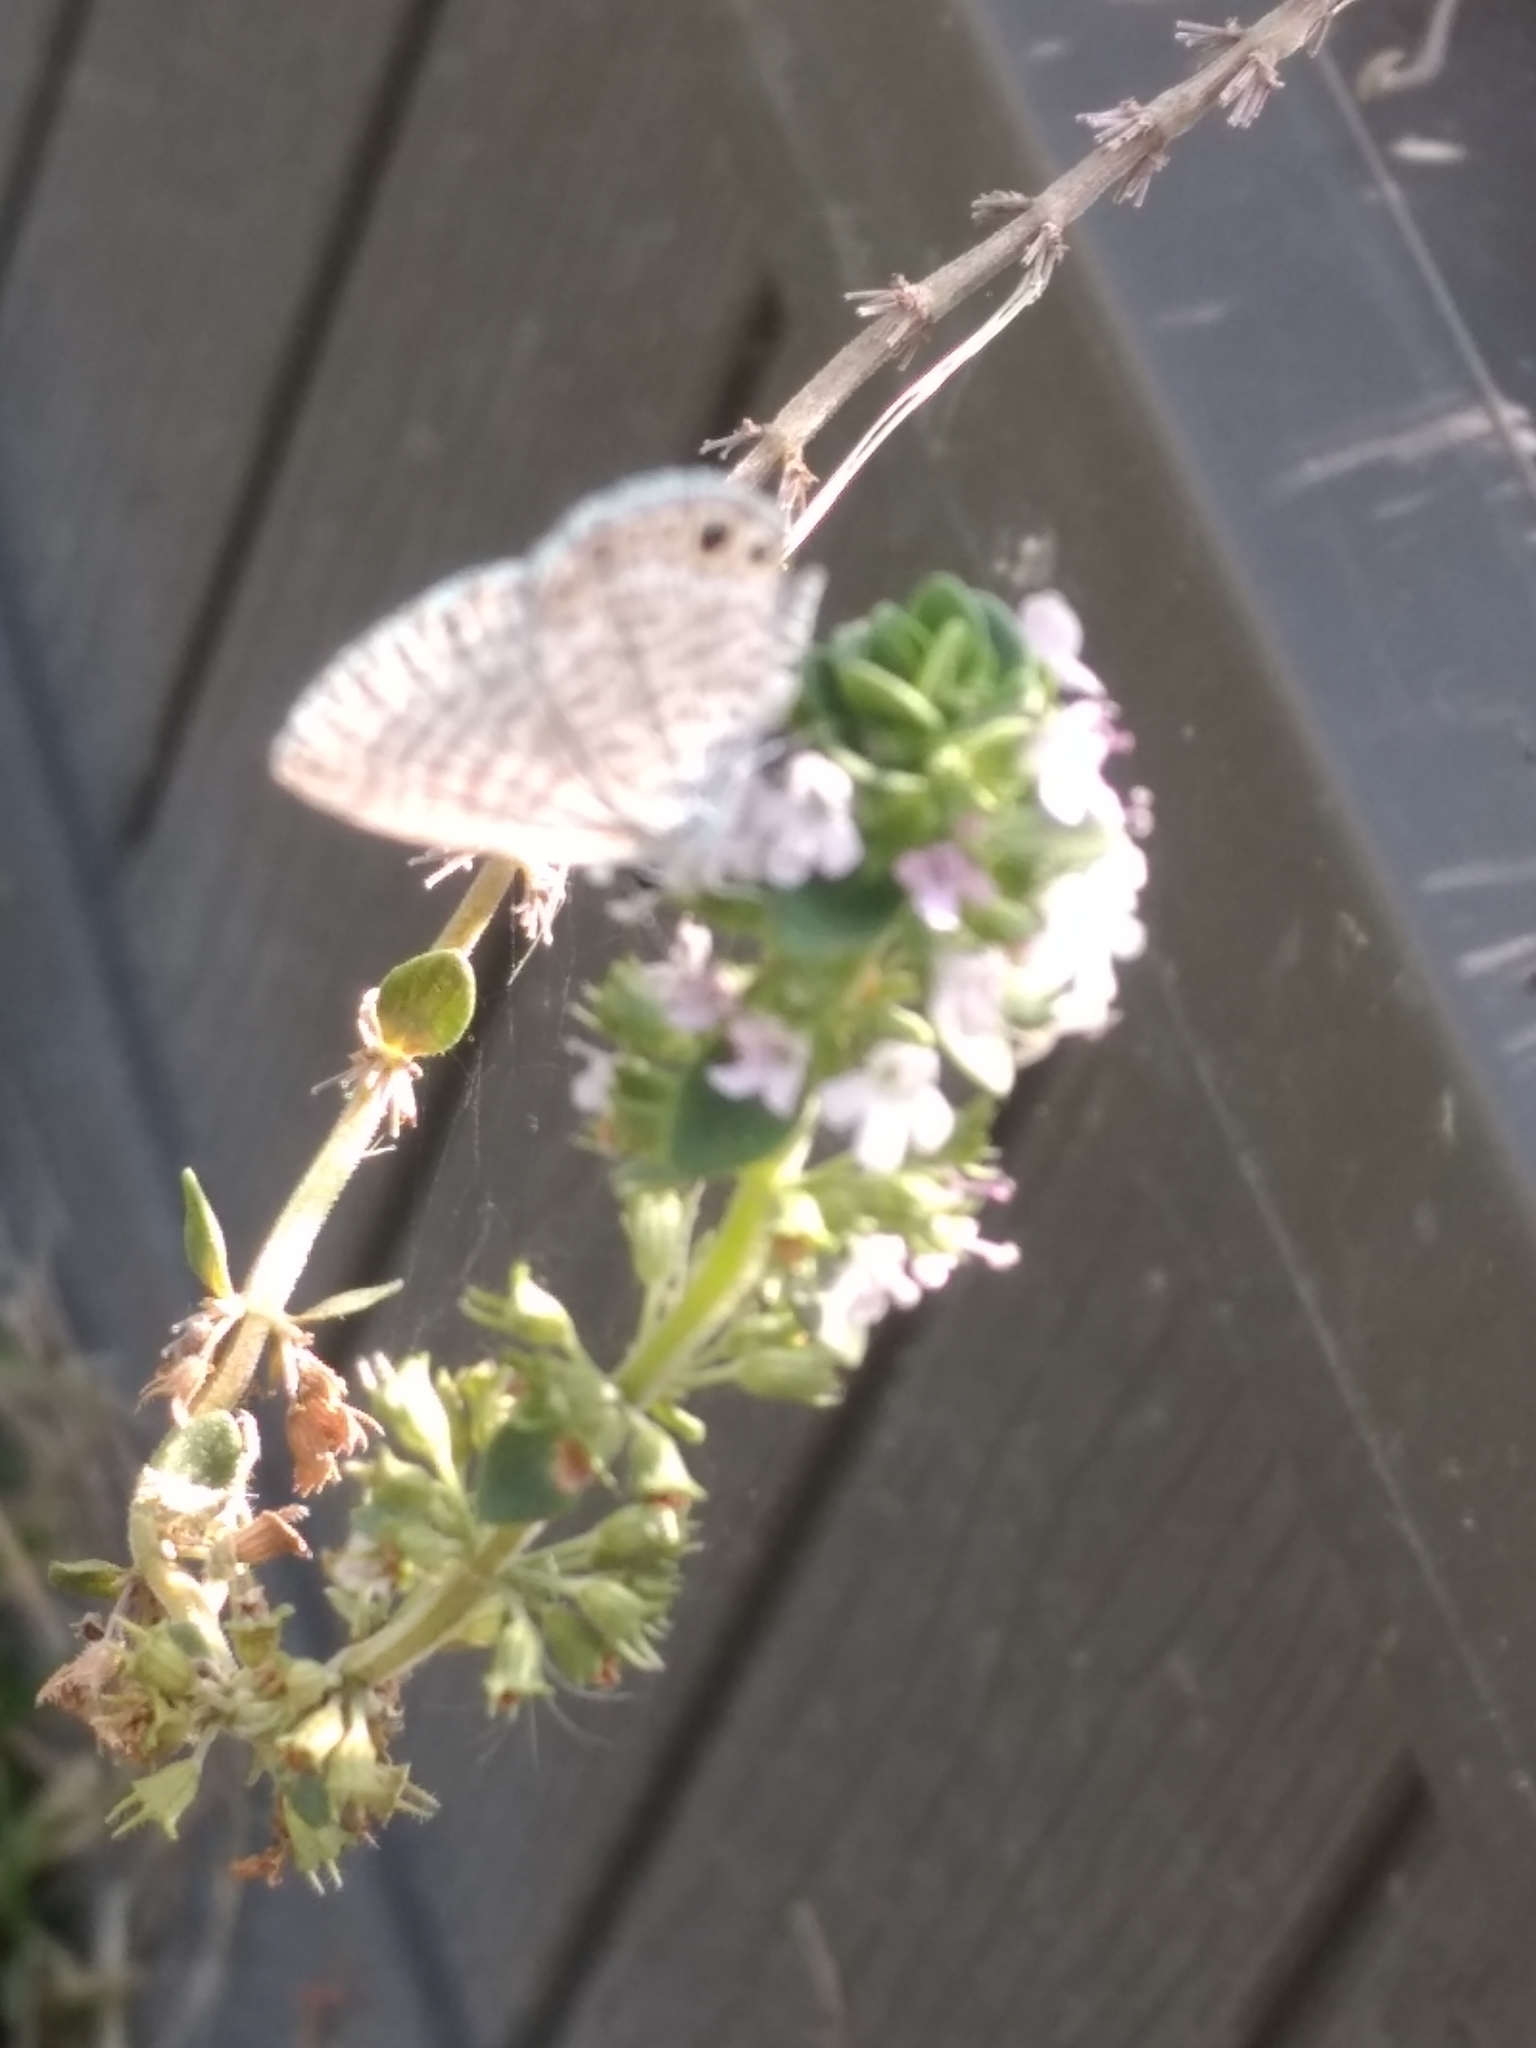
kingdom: Animalia
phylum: Arthropoda
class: Insecta
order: Lepidoptera
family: Lycaenidae
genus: Leptotes
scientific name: Leptotes marina
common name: Marine blue
